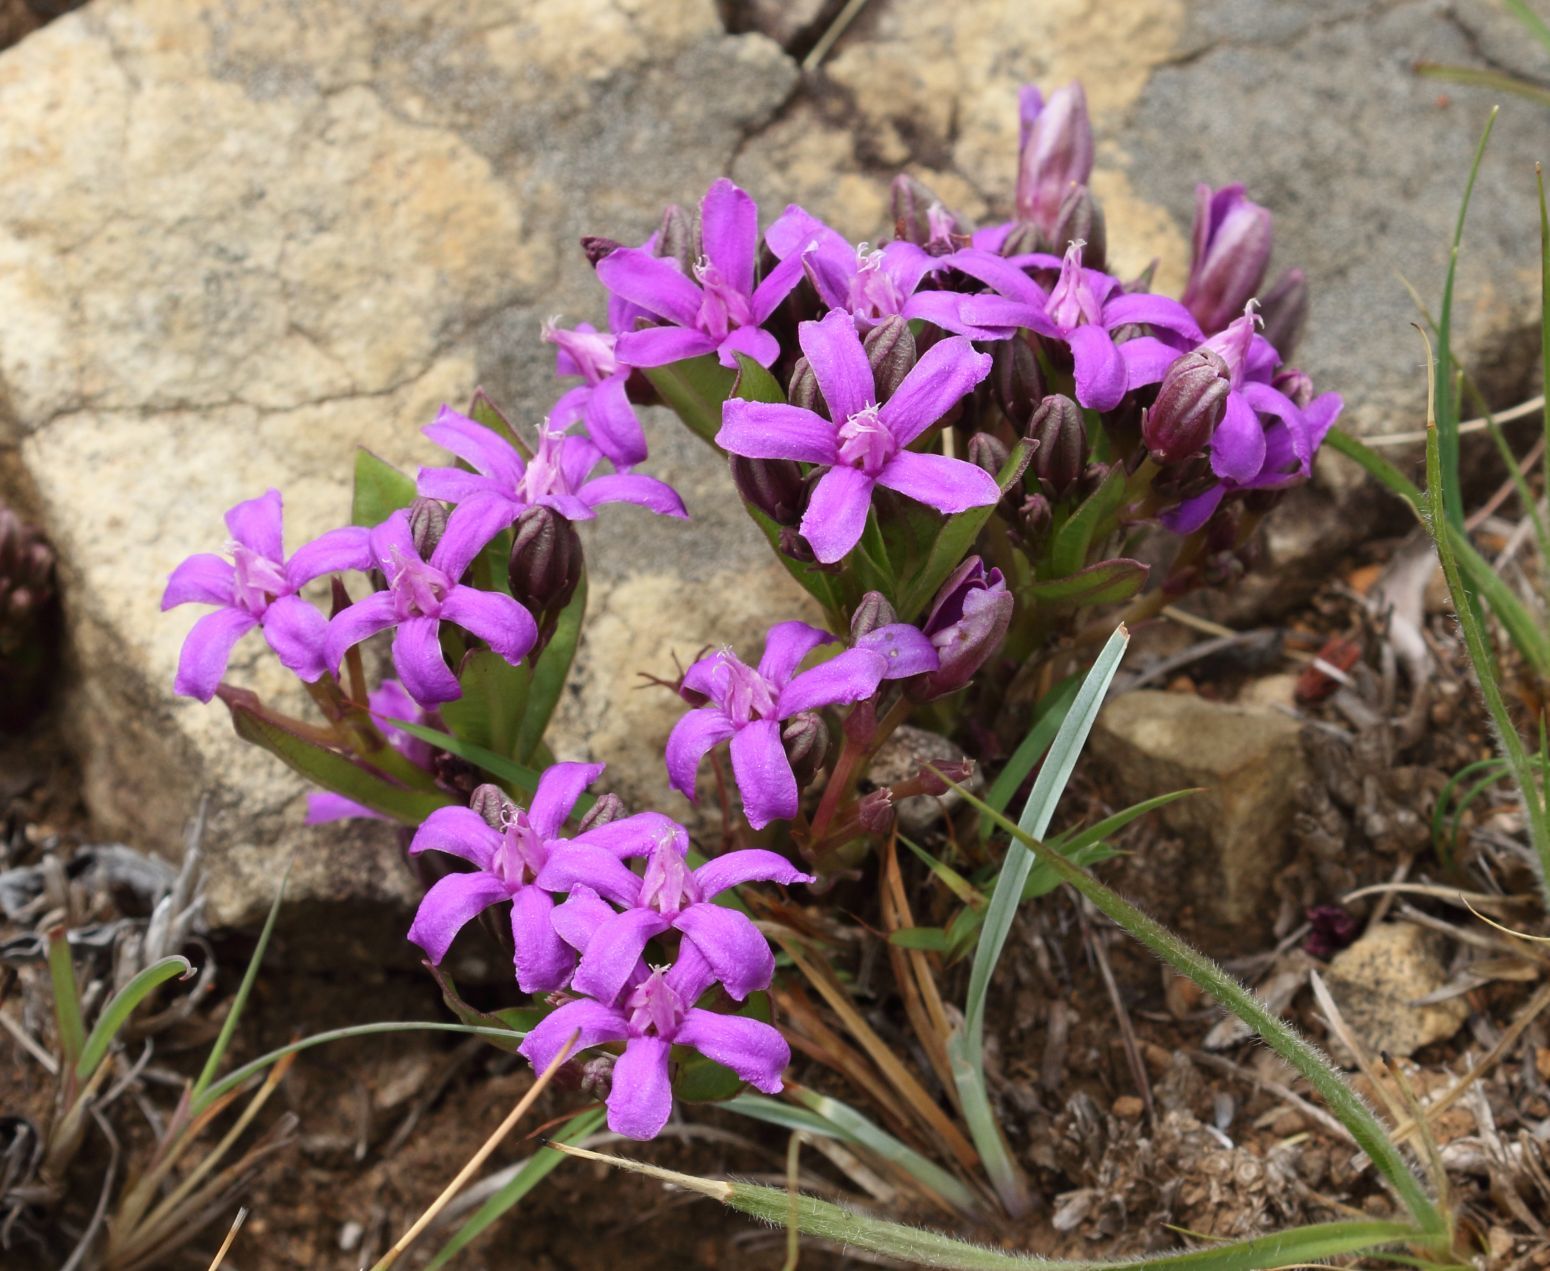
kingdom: Plantae
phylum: Tracheophyta
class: Magnoliopsida
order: Gentianales
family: Apocynaceae
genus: Raphionacme
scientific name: Raphionacme hirsuta
